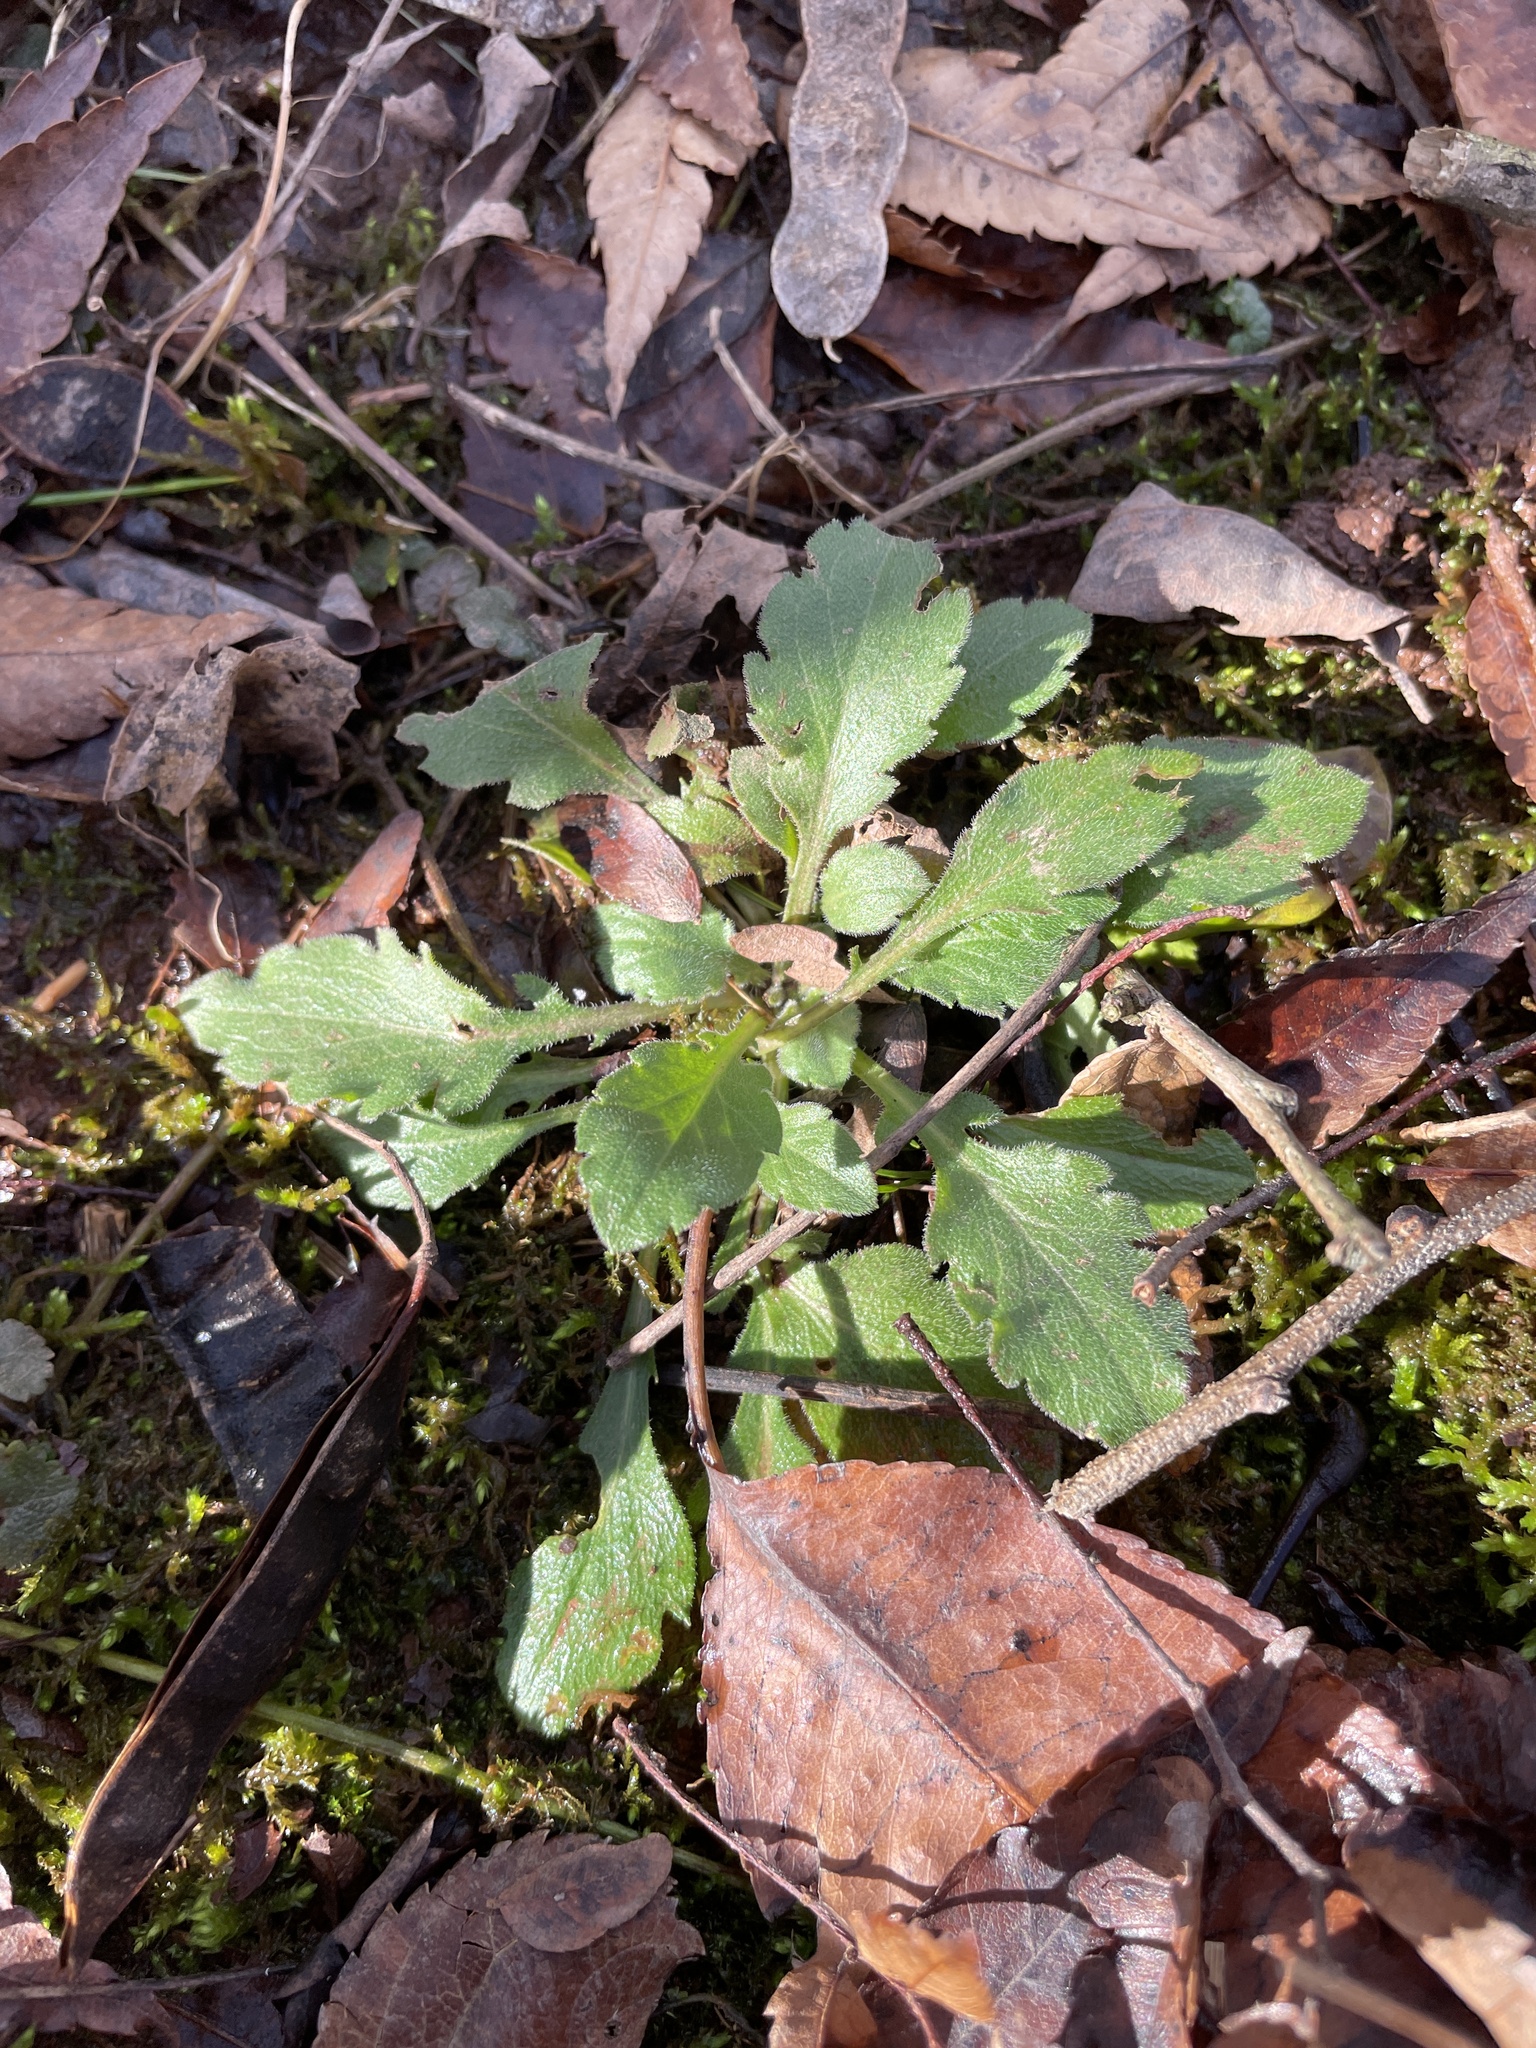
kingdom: Plantae
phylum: Tracheophyta
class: Magnoliopsida
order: Asterales
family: Asteraceae
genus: Erigeron
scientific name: Erigeron
